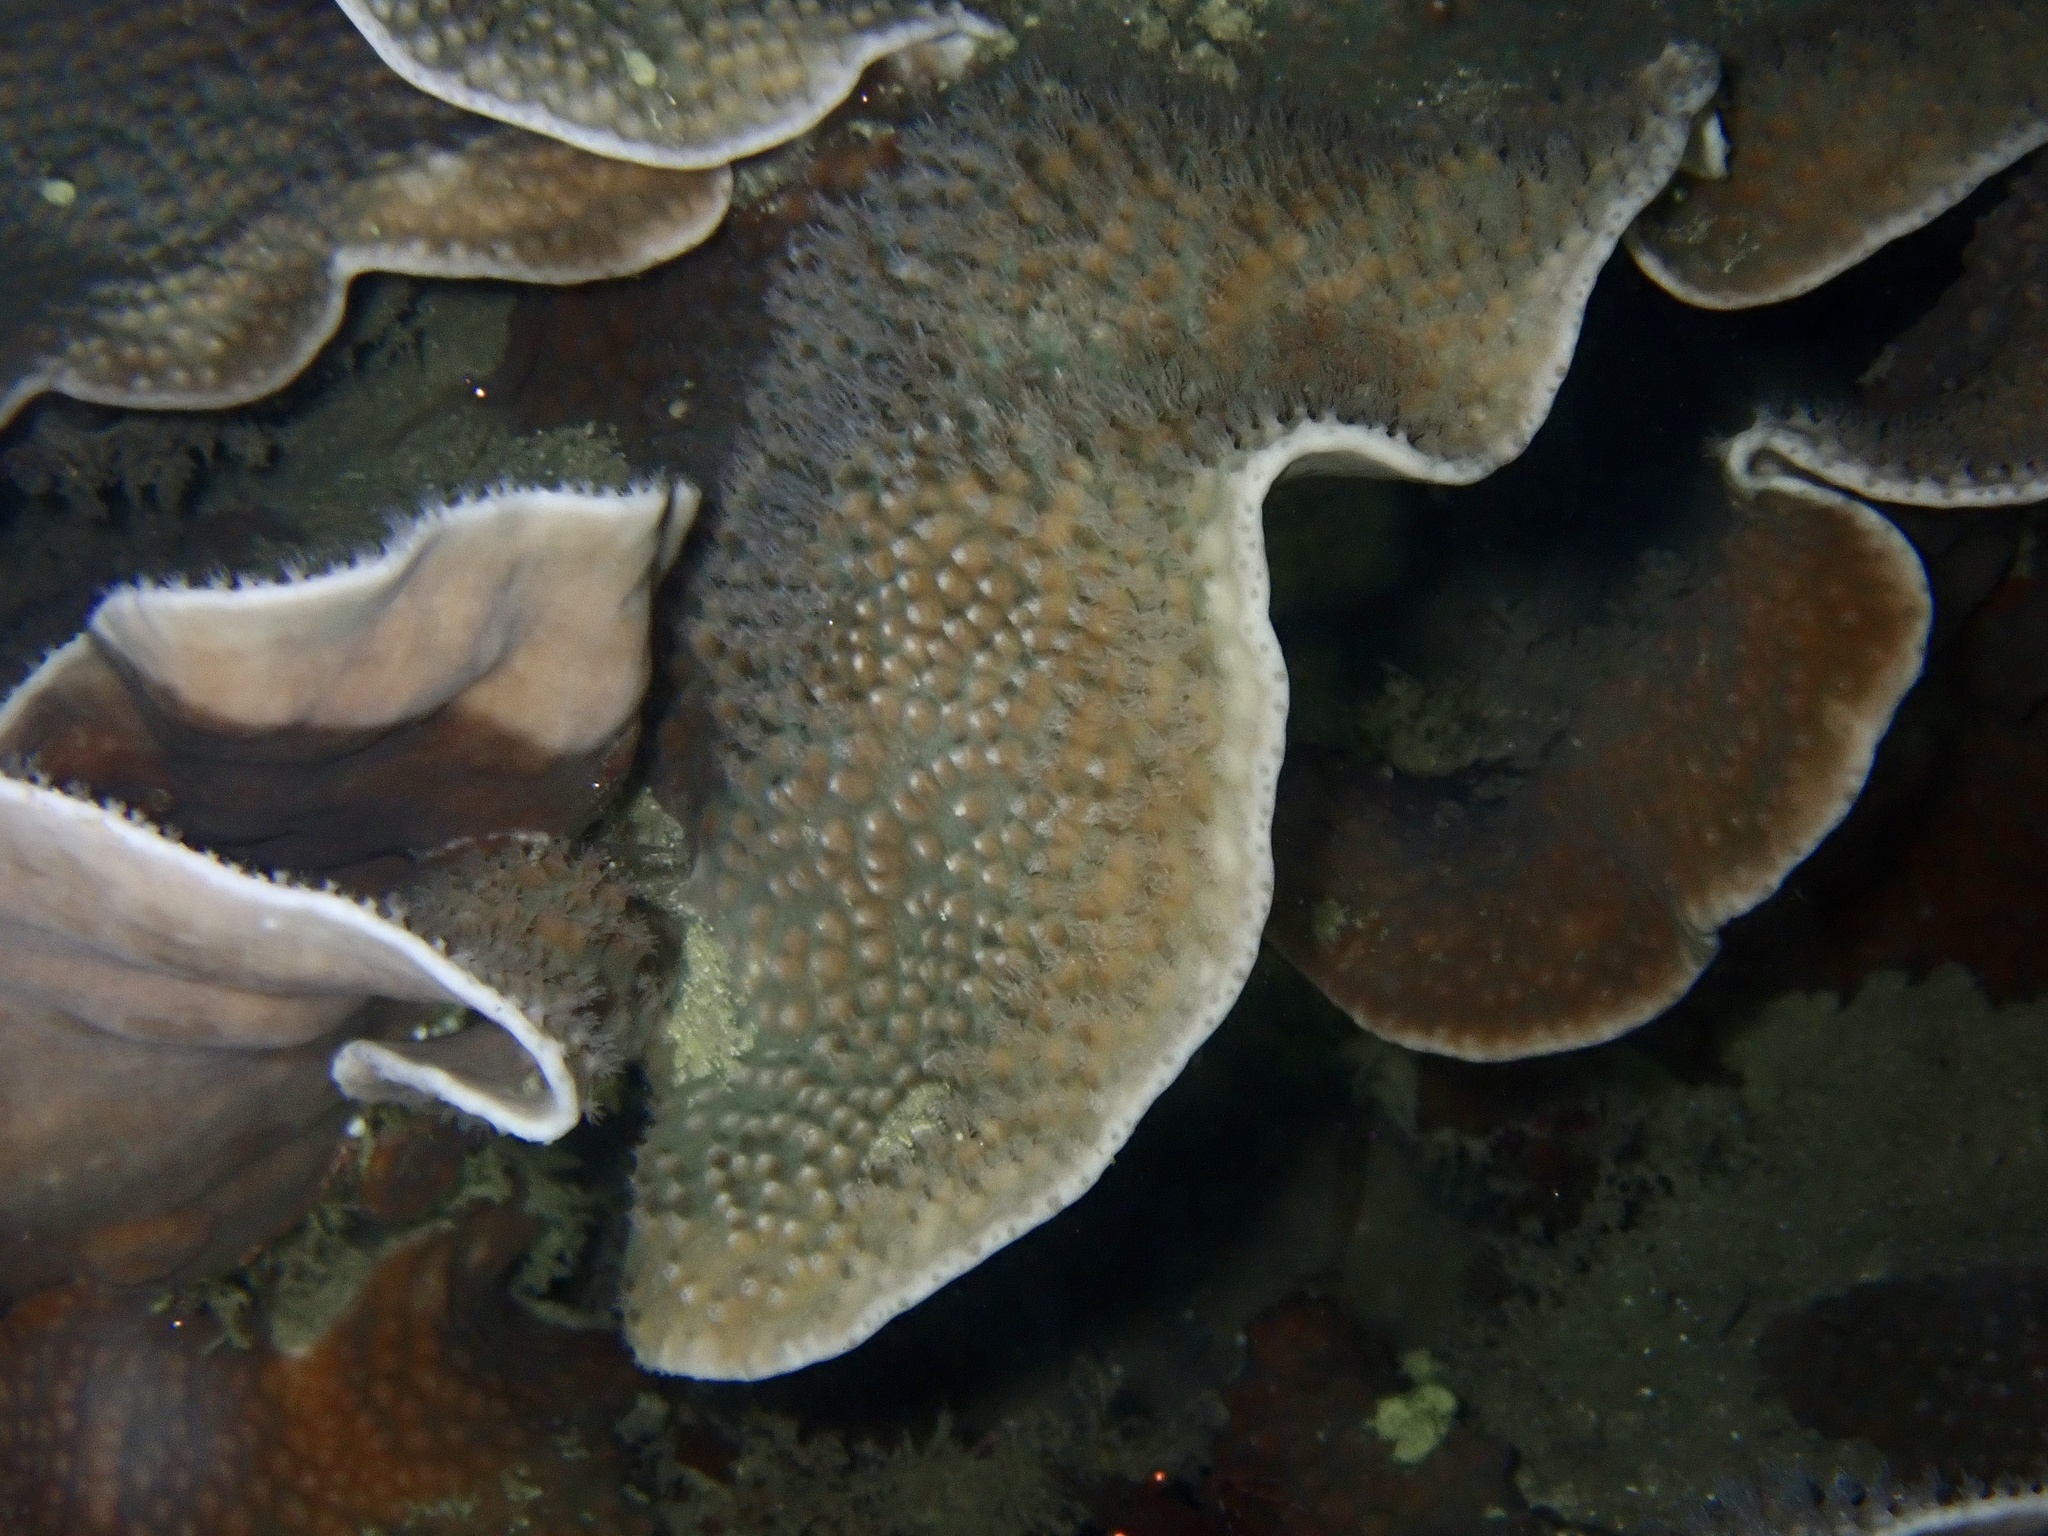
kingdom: Animalia
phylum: Cnidaria
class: Anthozoa
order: Scleractinia
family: Dendrophylliidae
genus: Turbinaria
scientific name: Turbinaria mesenterina
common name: Disc coral
